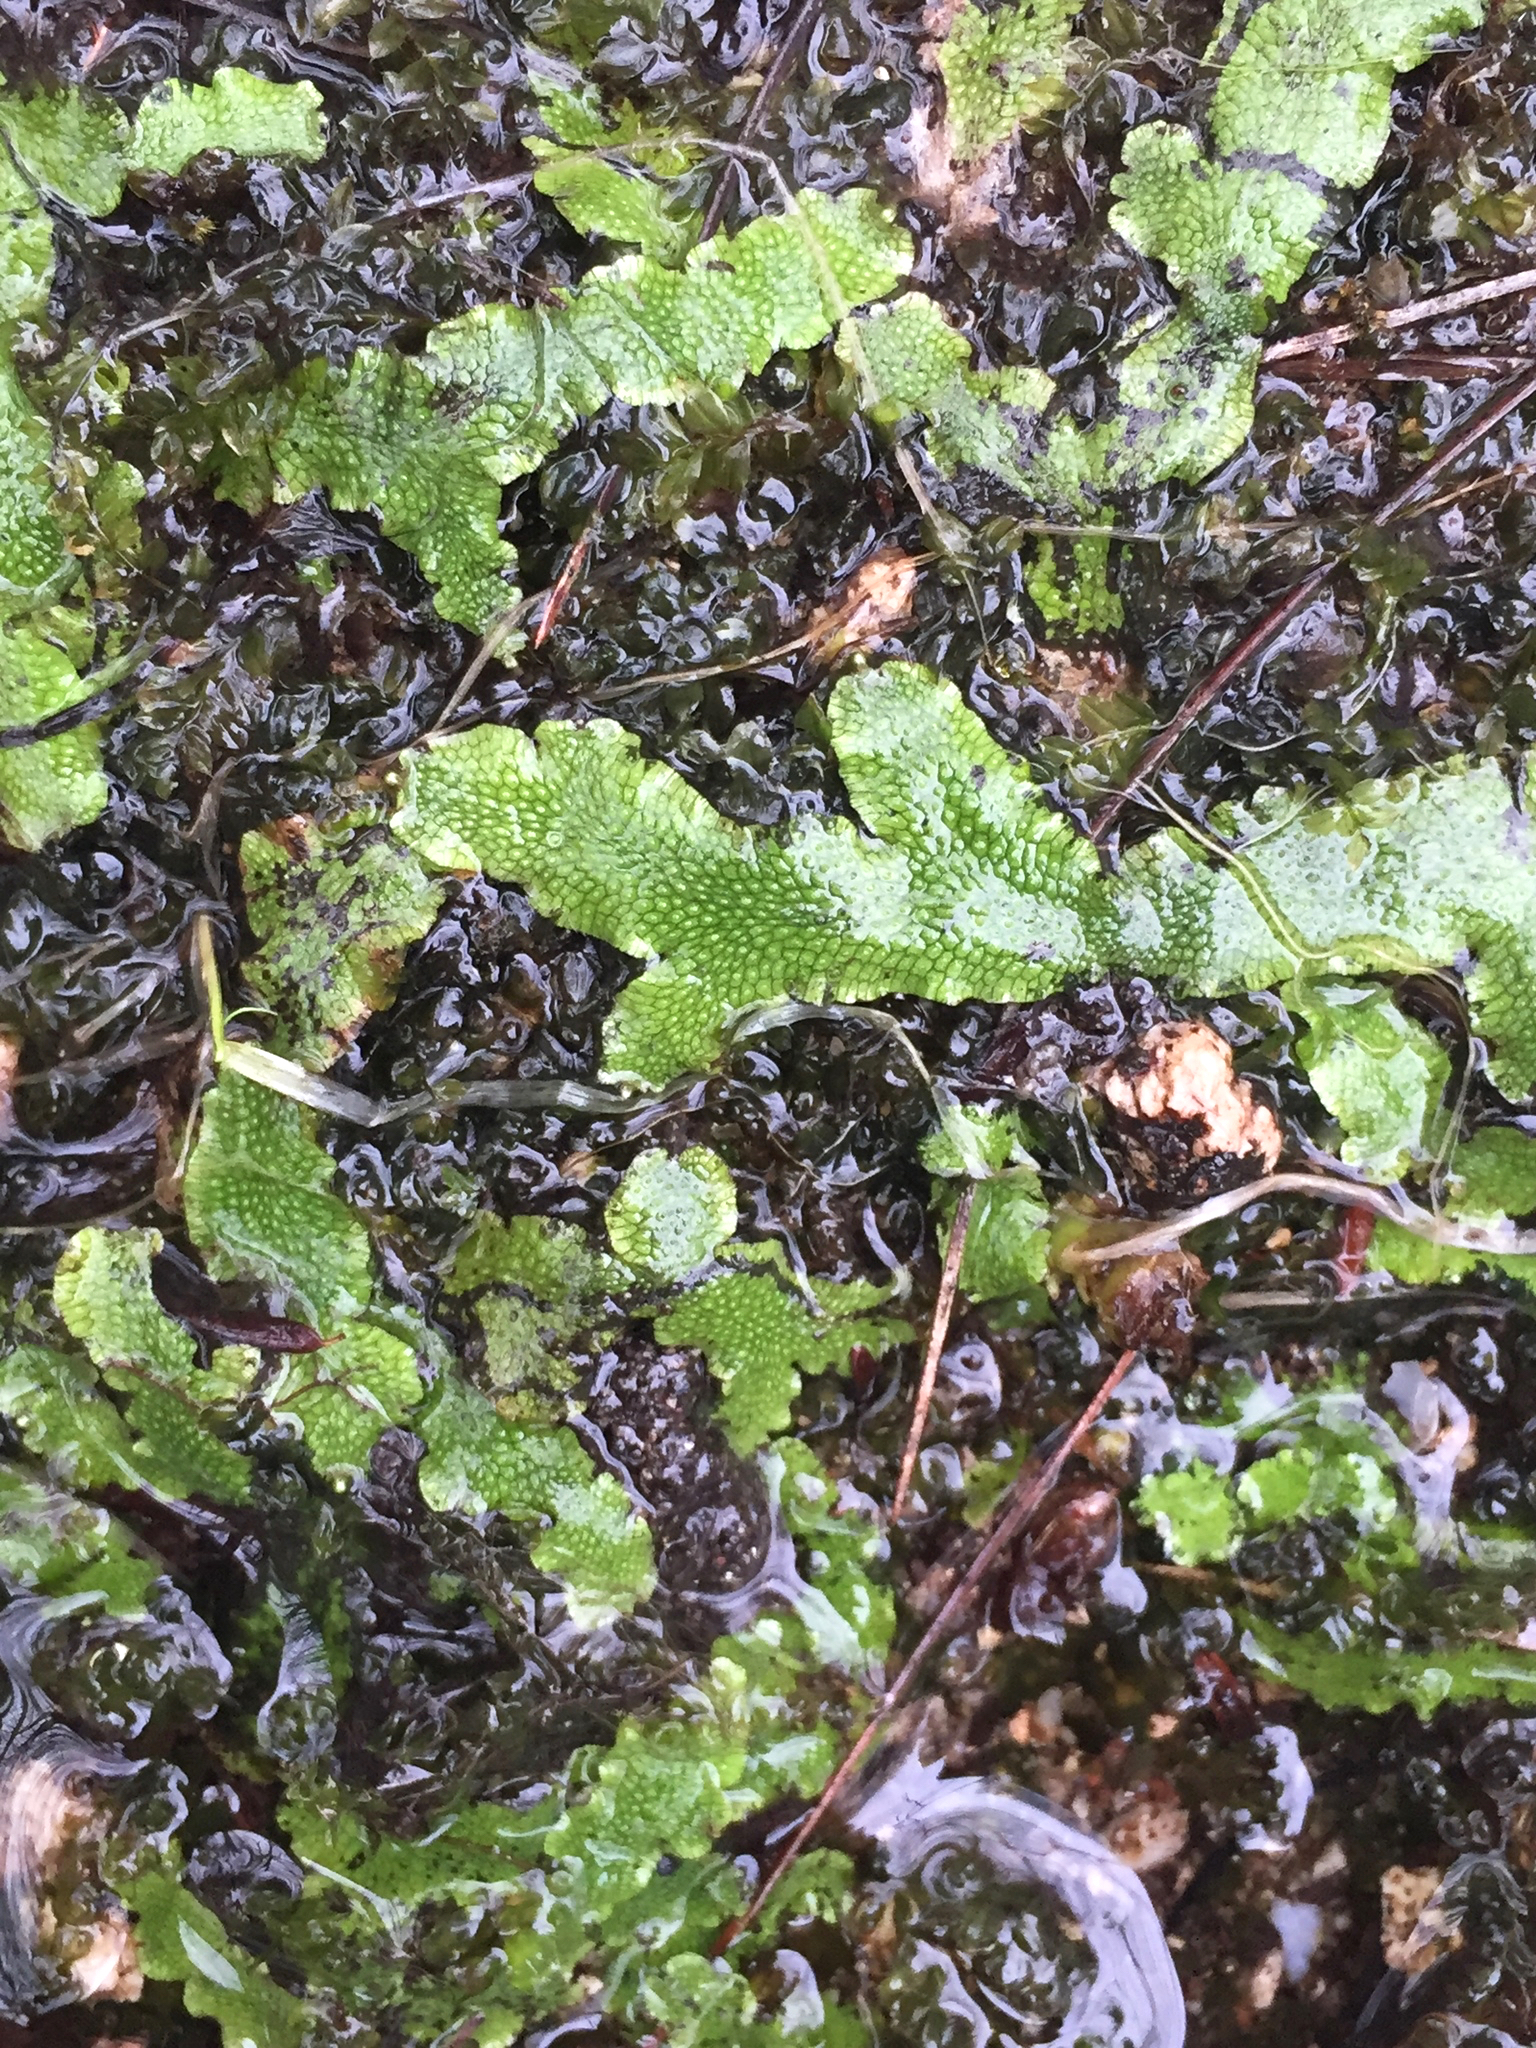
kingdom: Plantae
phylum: Marchantiophyta
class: Marchantiopsida
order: Marchantiales
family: Conocephalaceae
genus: Conocephalum
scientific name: Conocephalum salebrosum
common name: Cat-tongue liverwort
